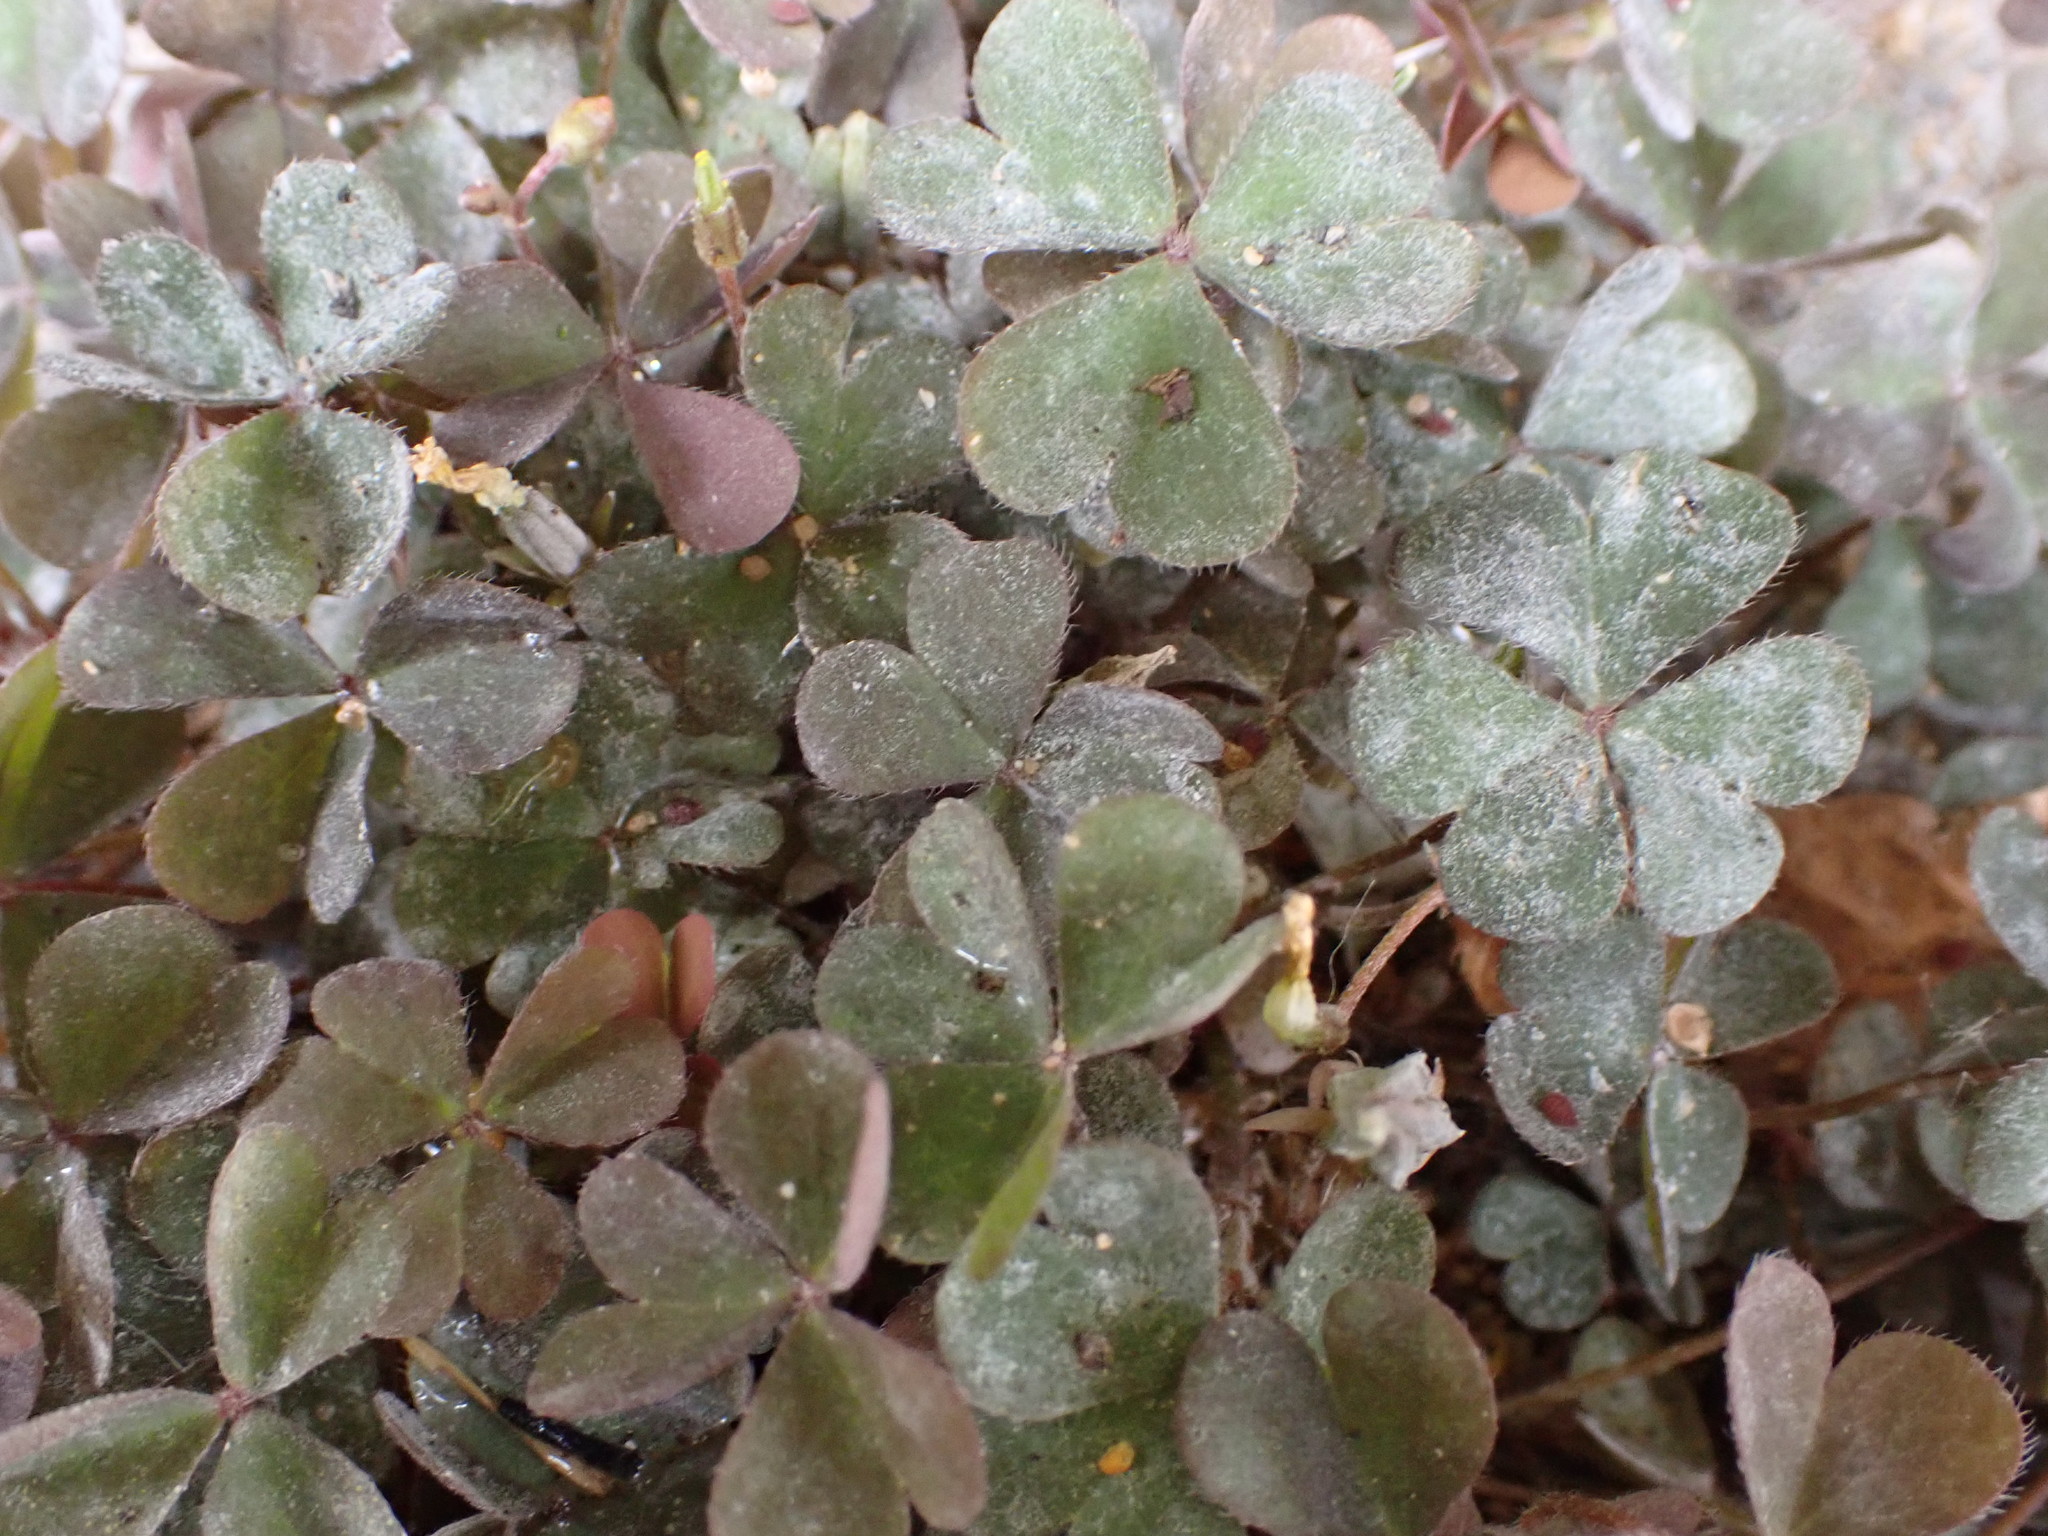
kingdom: Fungi
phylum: Ascomycota
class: Leotiomycetes
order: Helotiales
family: Erysiphaceae
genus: Erysiphe
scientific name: Erysiphe russellii
